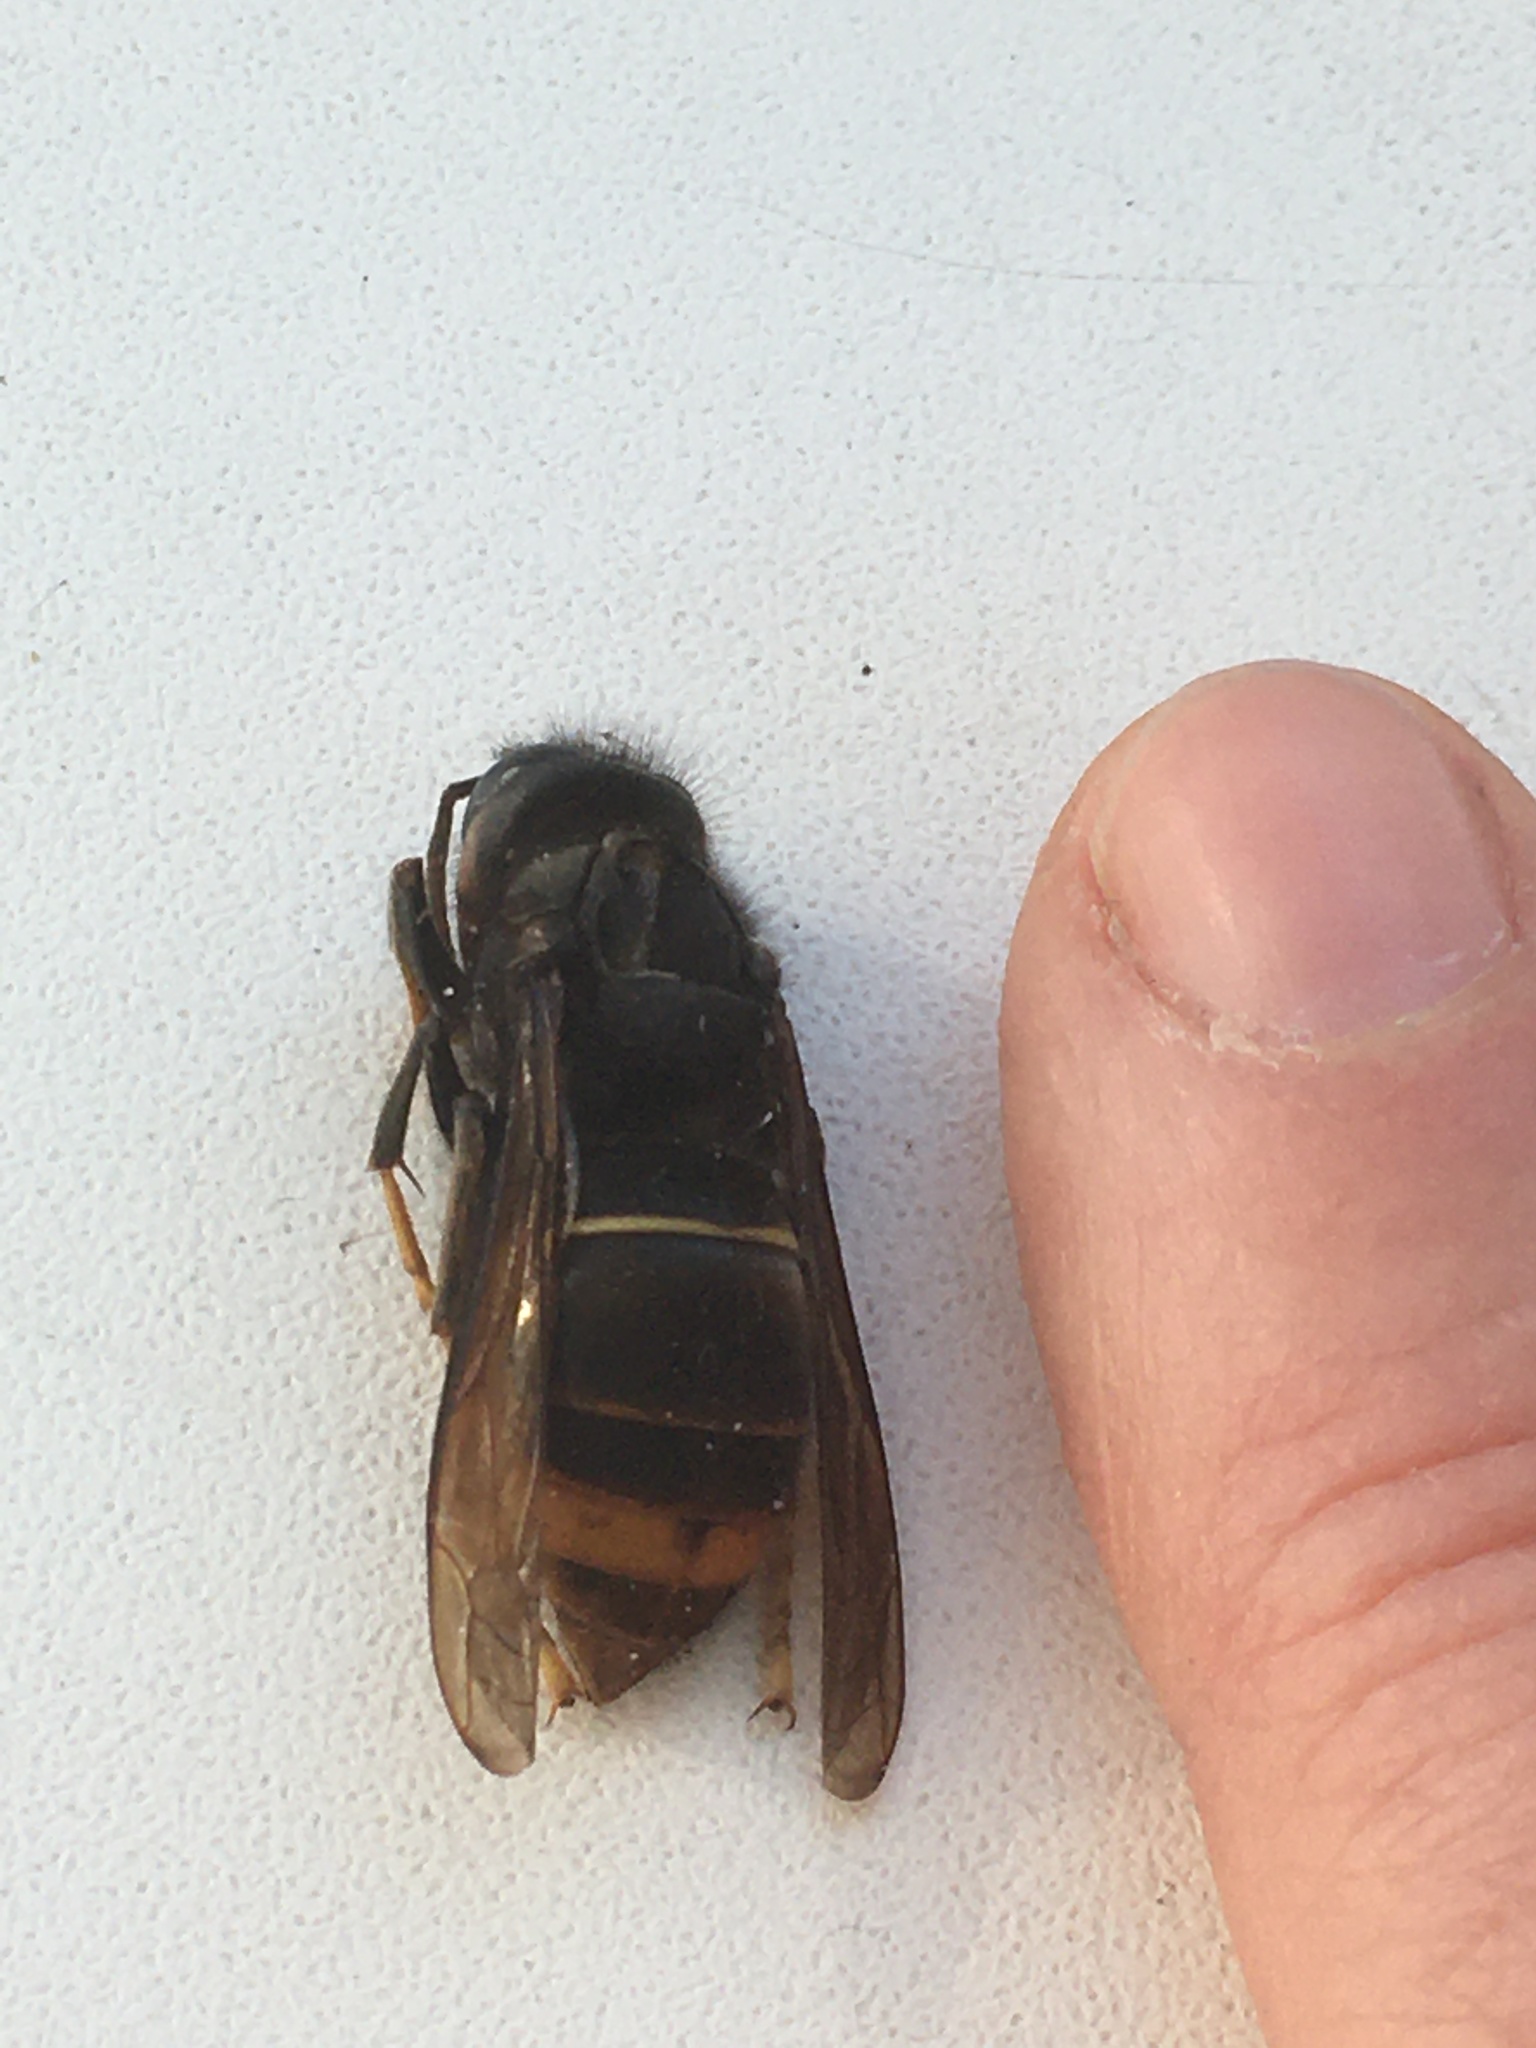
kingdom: Animalia
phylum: Arthropoda
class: Insecta
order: Hymenoptera
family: Vespidae
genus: Vespa
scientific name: Vespa velutina
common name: Asian hornet
